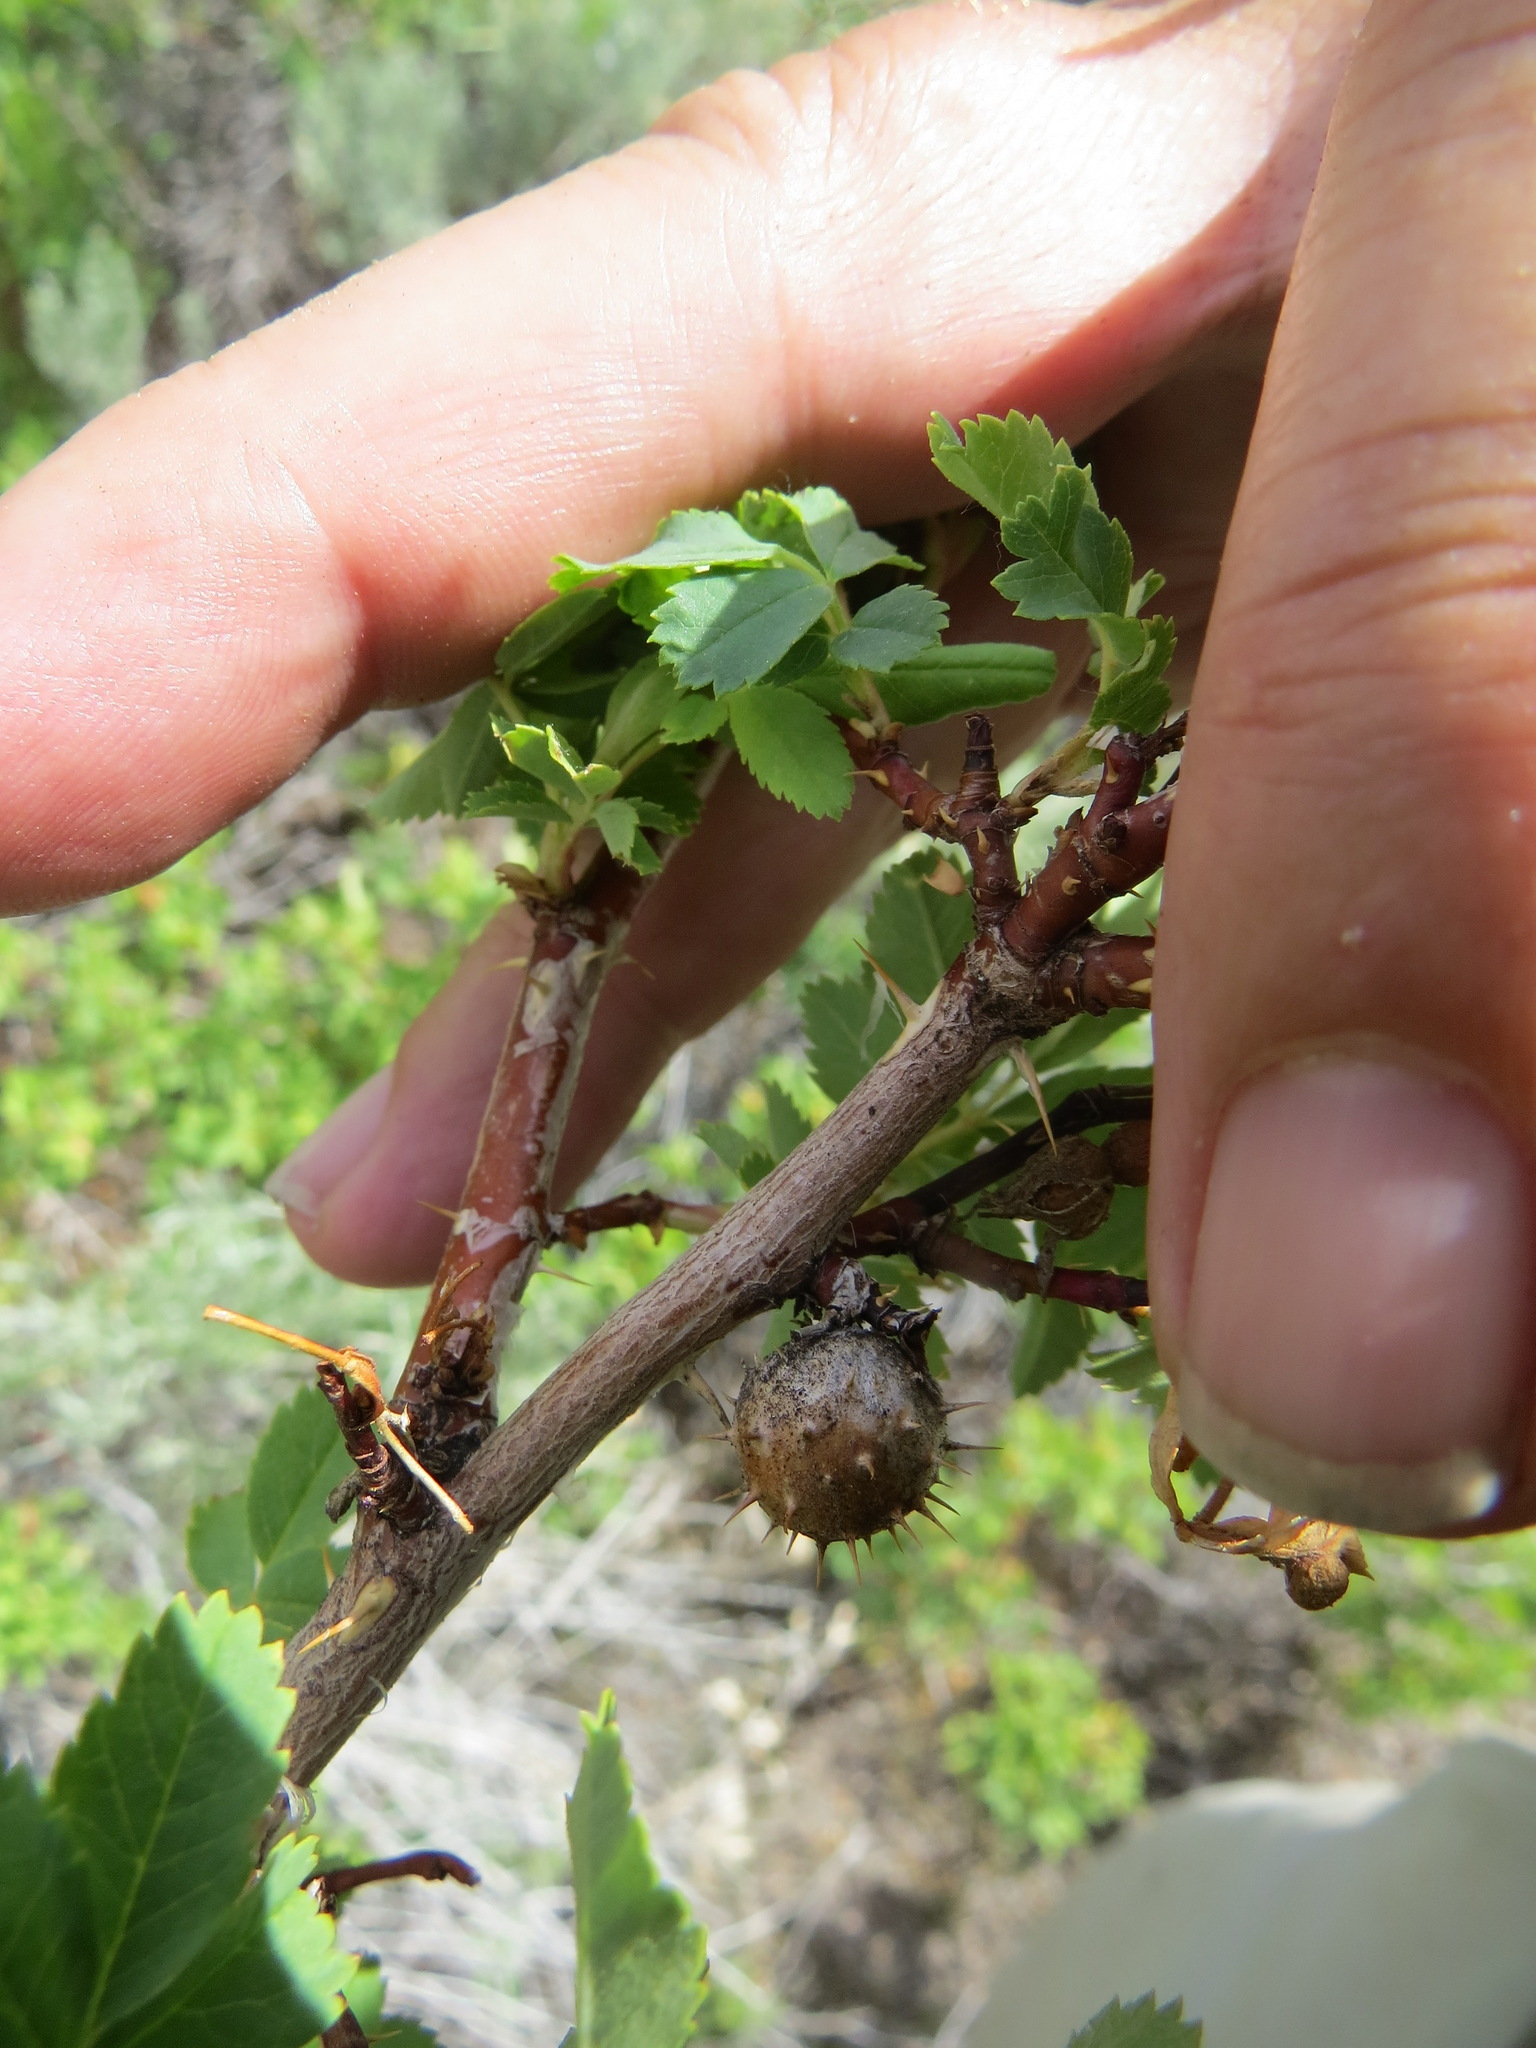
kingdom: Animalia
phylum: Arthropoda
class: Insecta
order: Hymenoptera
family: Cynipidae
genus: Diplolepis
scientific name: Diplolepis bicolor
